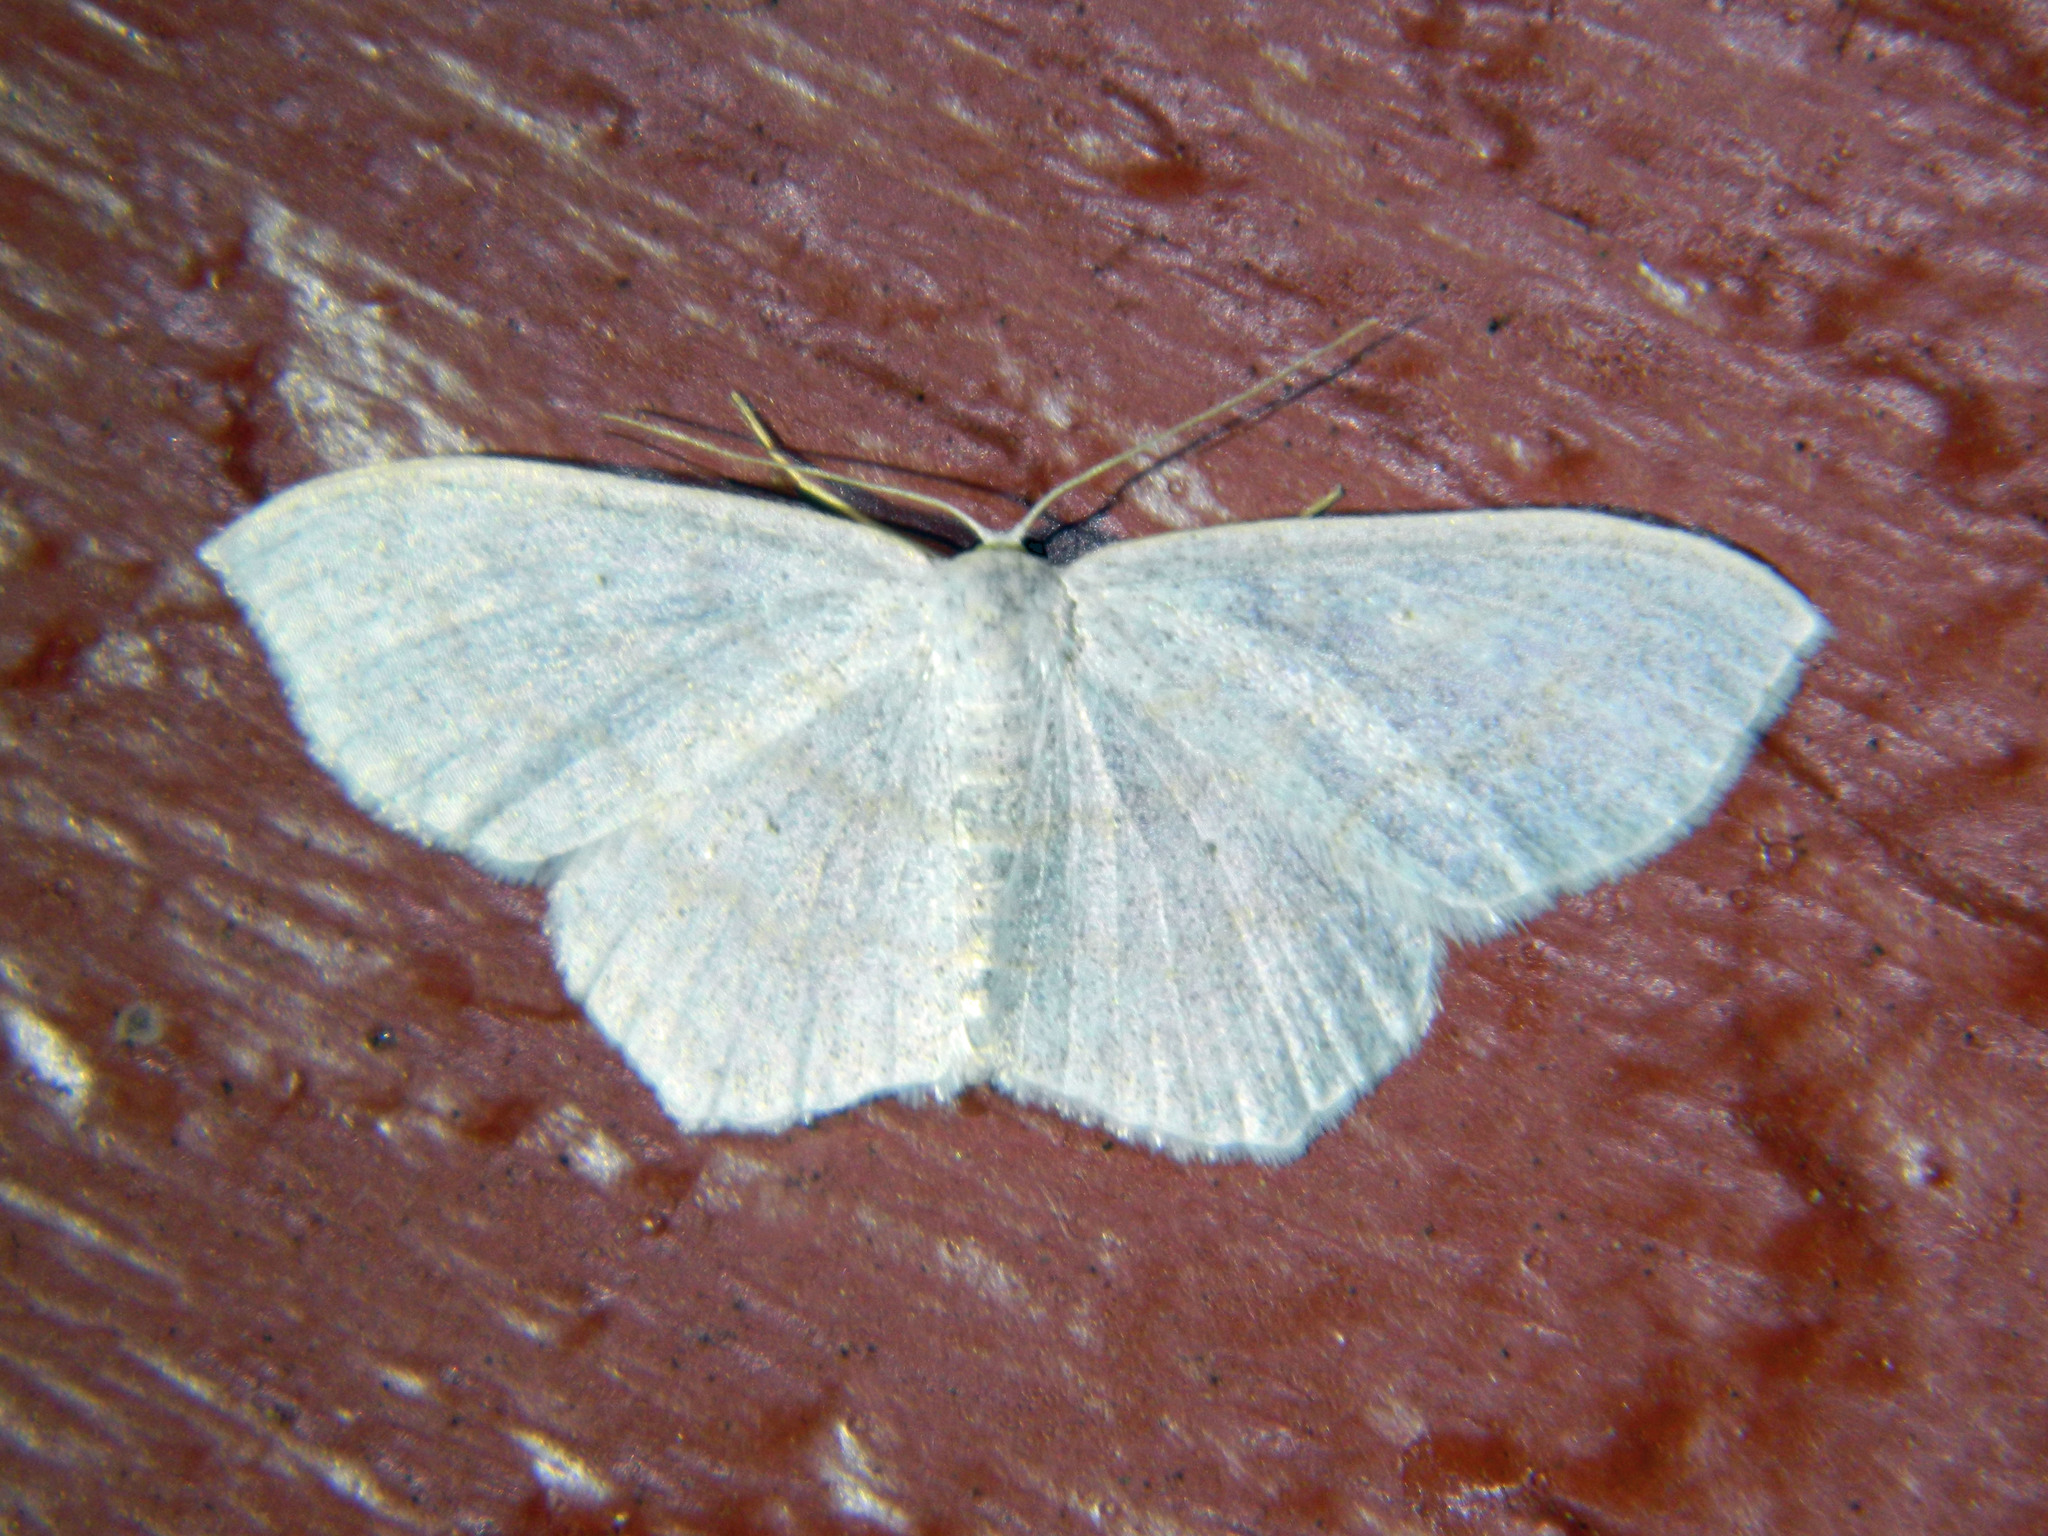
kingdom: Animalia
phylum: Arthropoda
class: Insecta
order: Lepidoptera
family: Geometridae
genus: Scopula
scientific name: Scopula limboundata
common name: Large lace border
